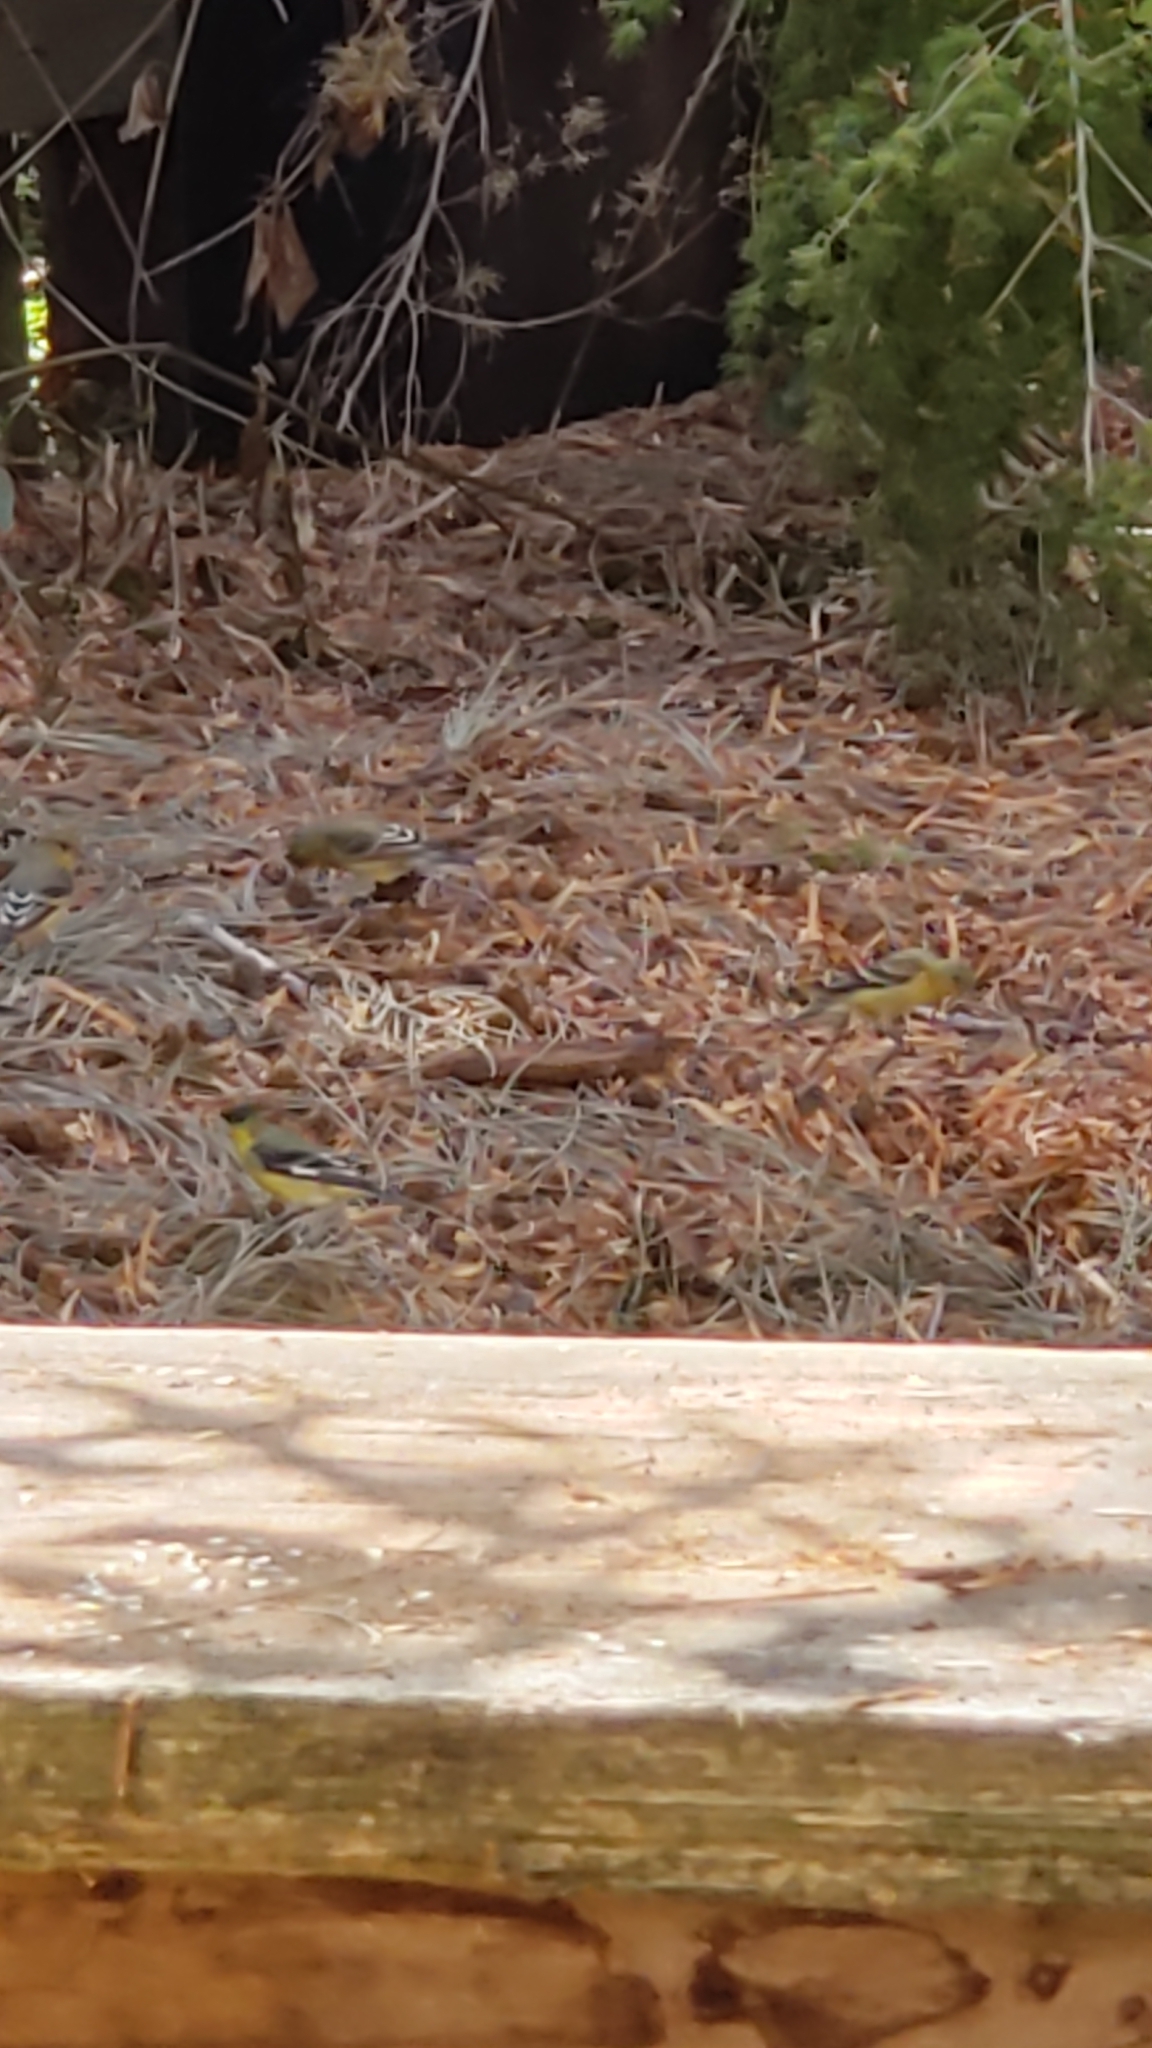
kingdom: Animalia
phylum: Chordata
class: Aves
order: Passeriformes
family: Fringillidae
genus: Spinus
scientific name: Spinus psaltria
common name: Lesser goldfinch
